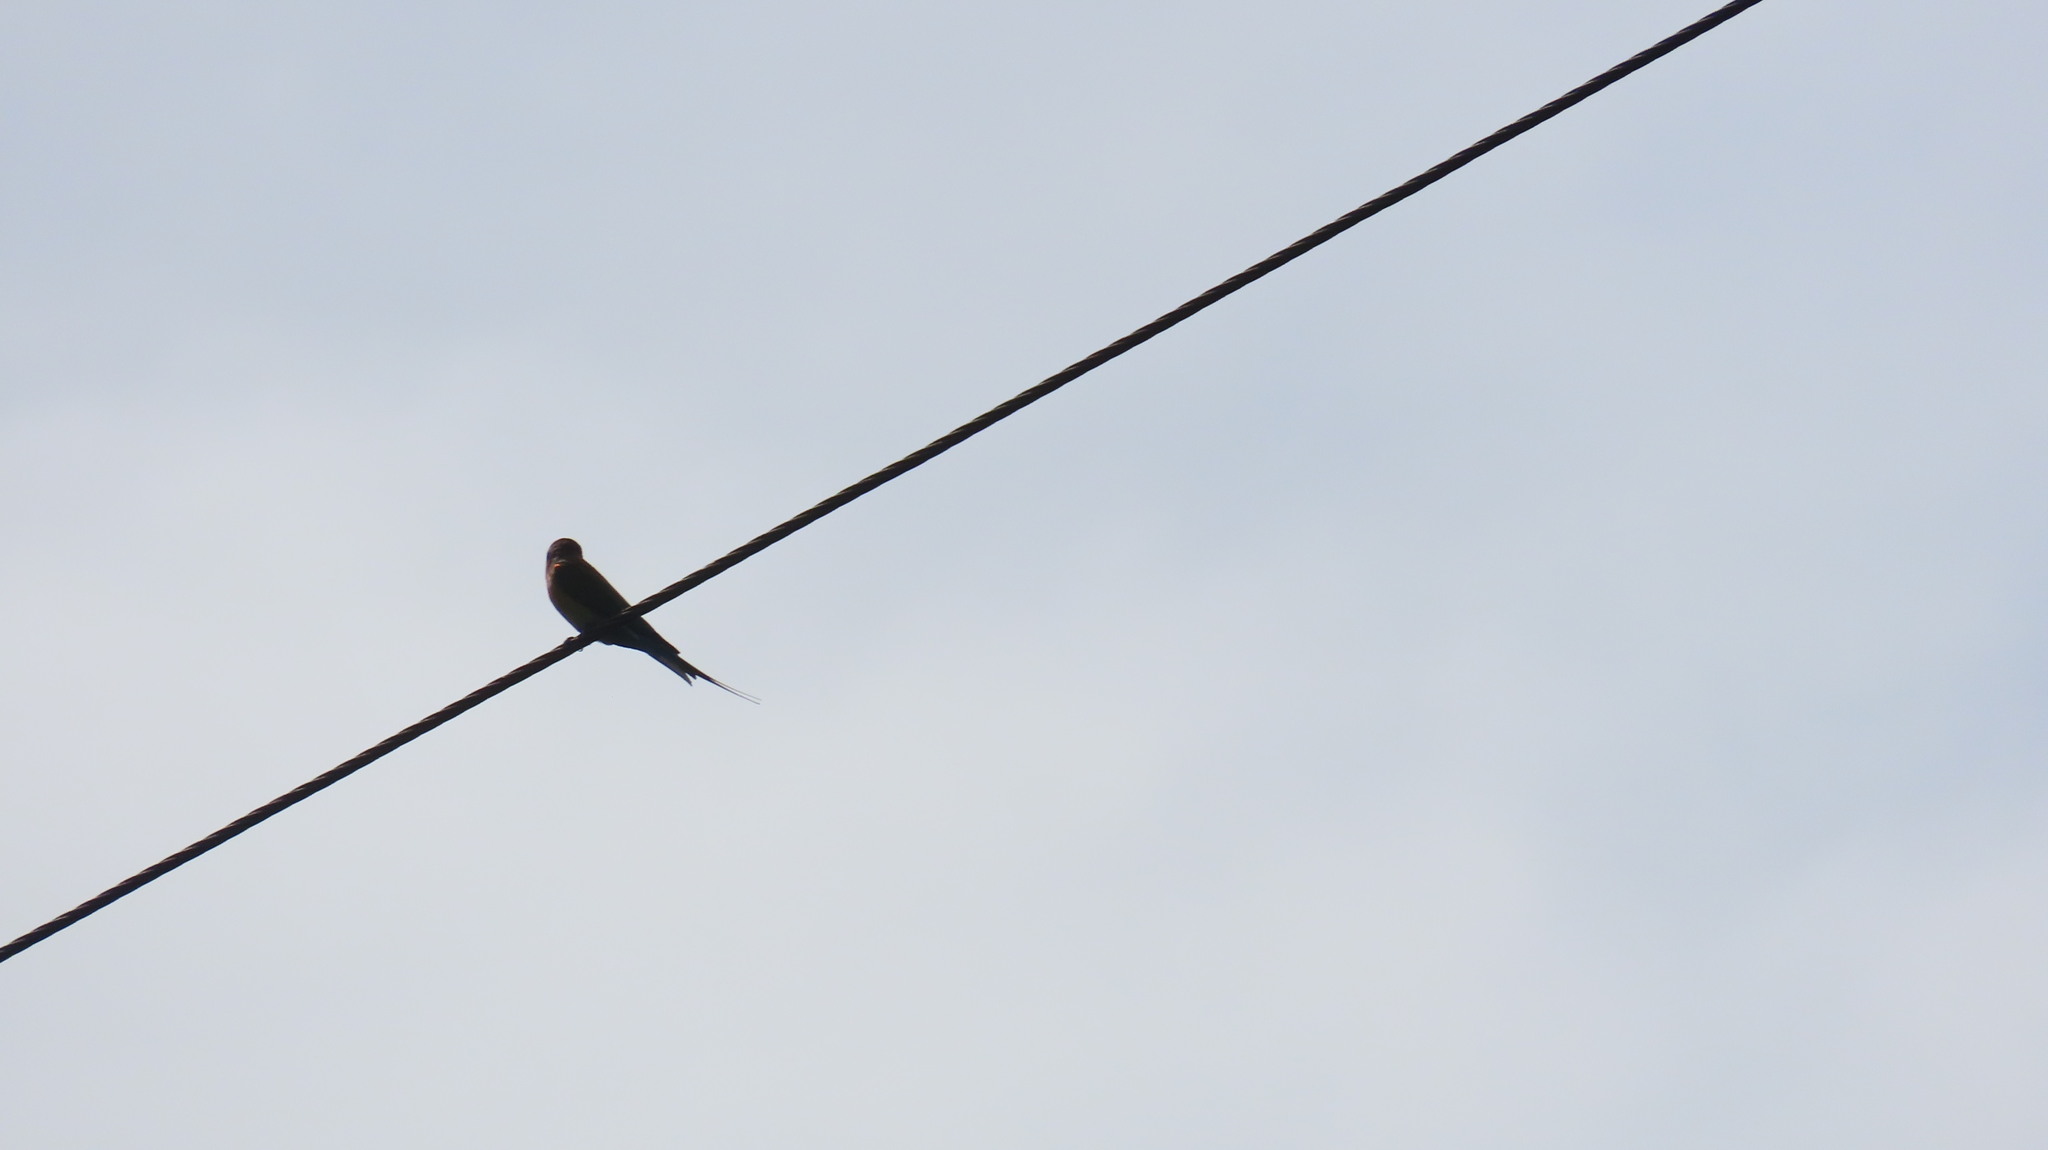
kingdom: Animalia
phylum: Chordata
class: Aves
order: Coraciiformes
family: Meropidae
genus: Merops
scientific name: Merops philippinus
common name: Blue-tailed bee-eater
